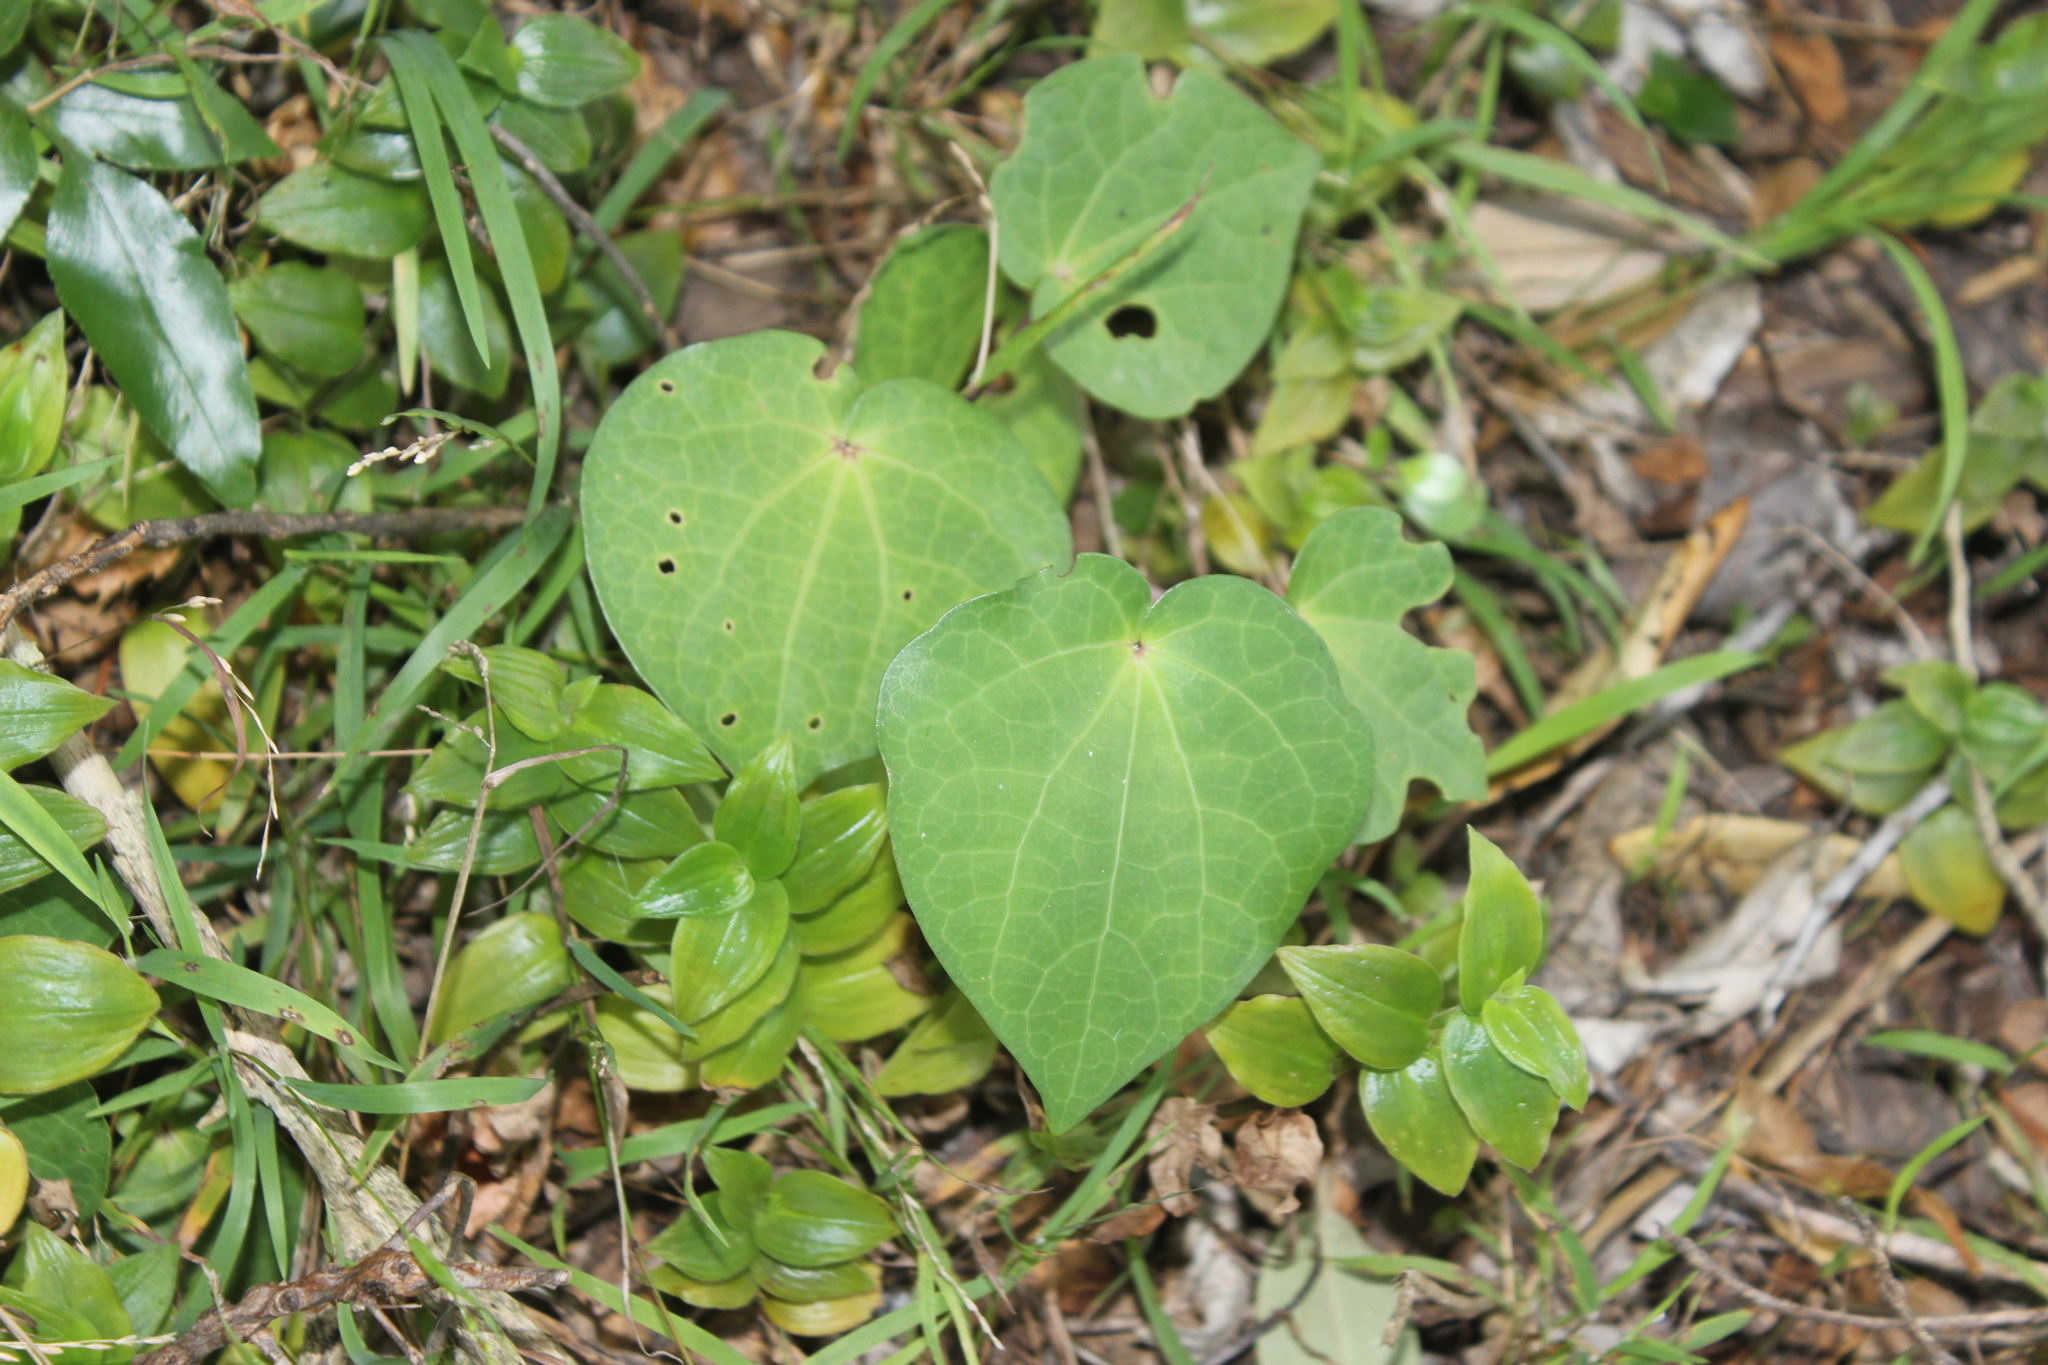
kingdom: Plantae
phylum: Tracheophyta
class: Magnoliopsida
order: Piperales
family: Piperaceae
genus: Macropiper
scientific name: Macropiper excelsum
